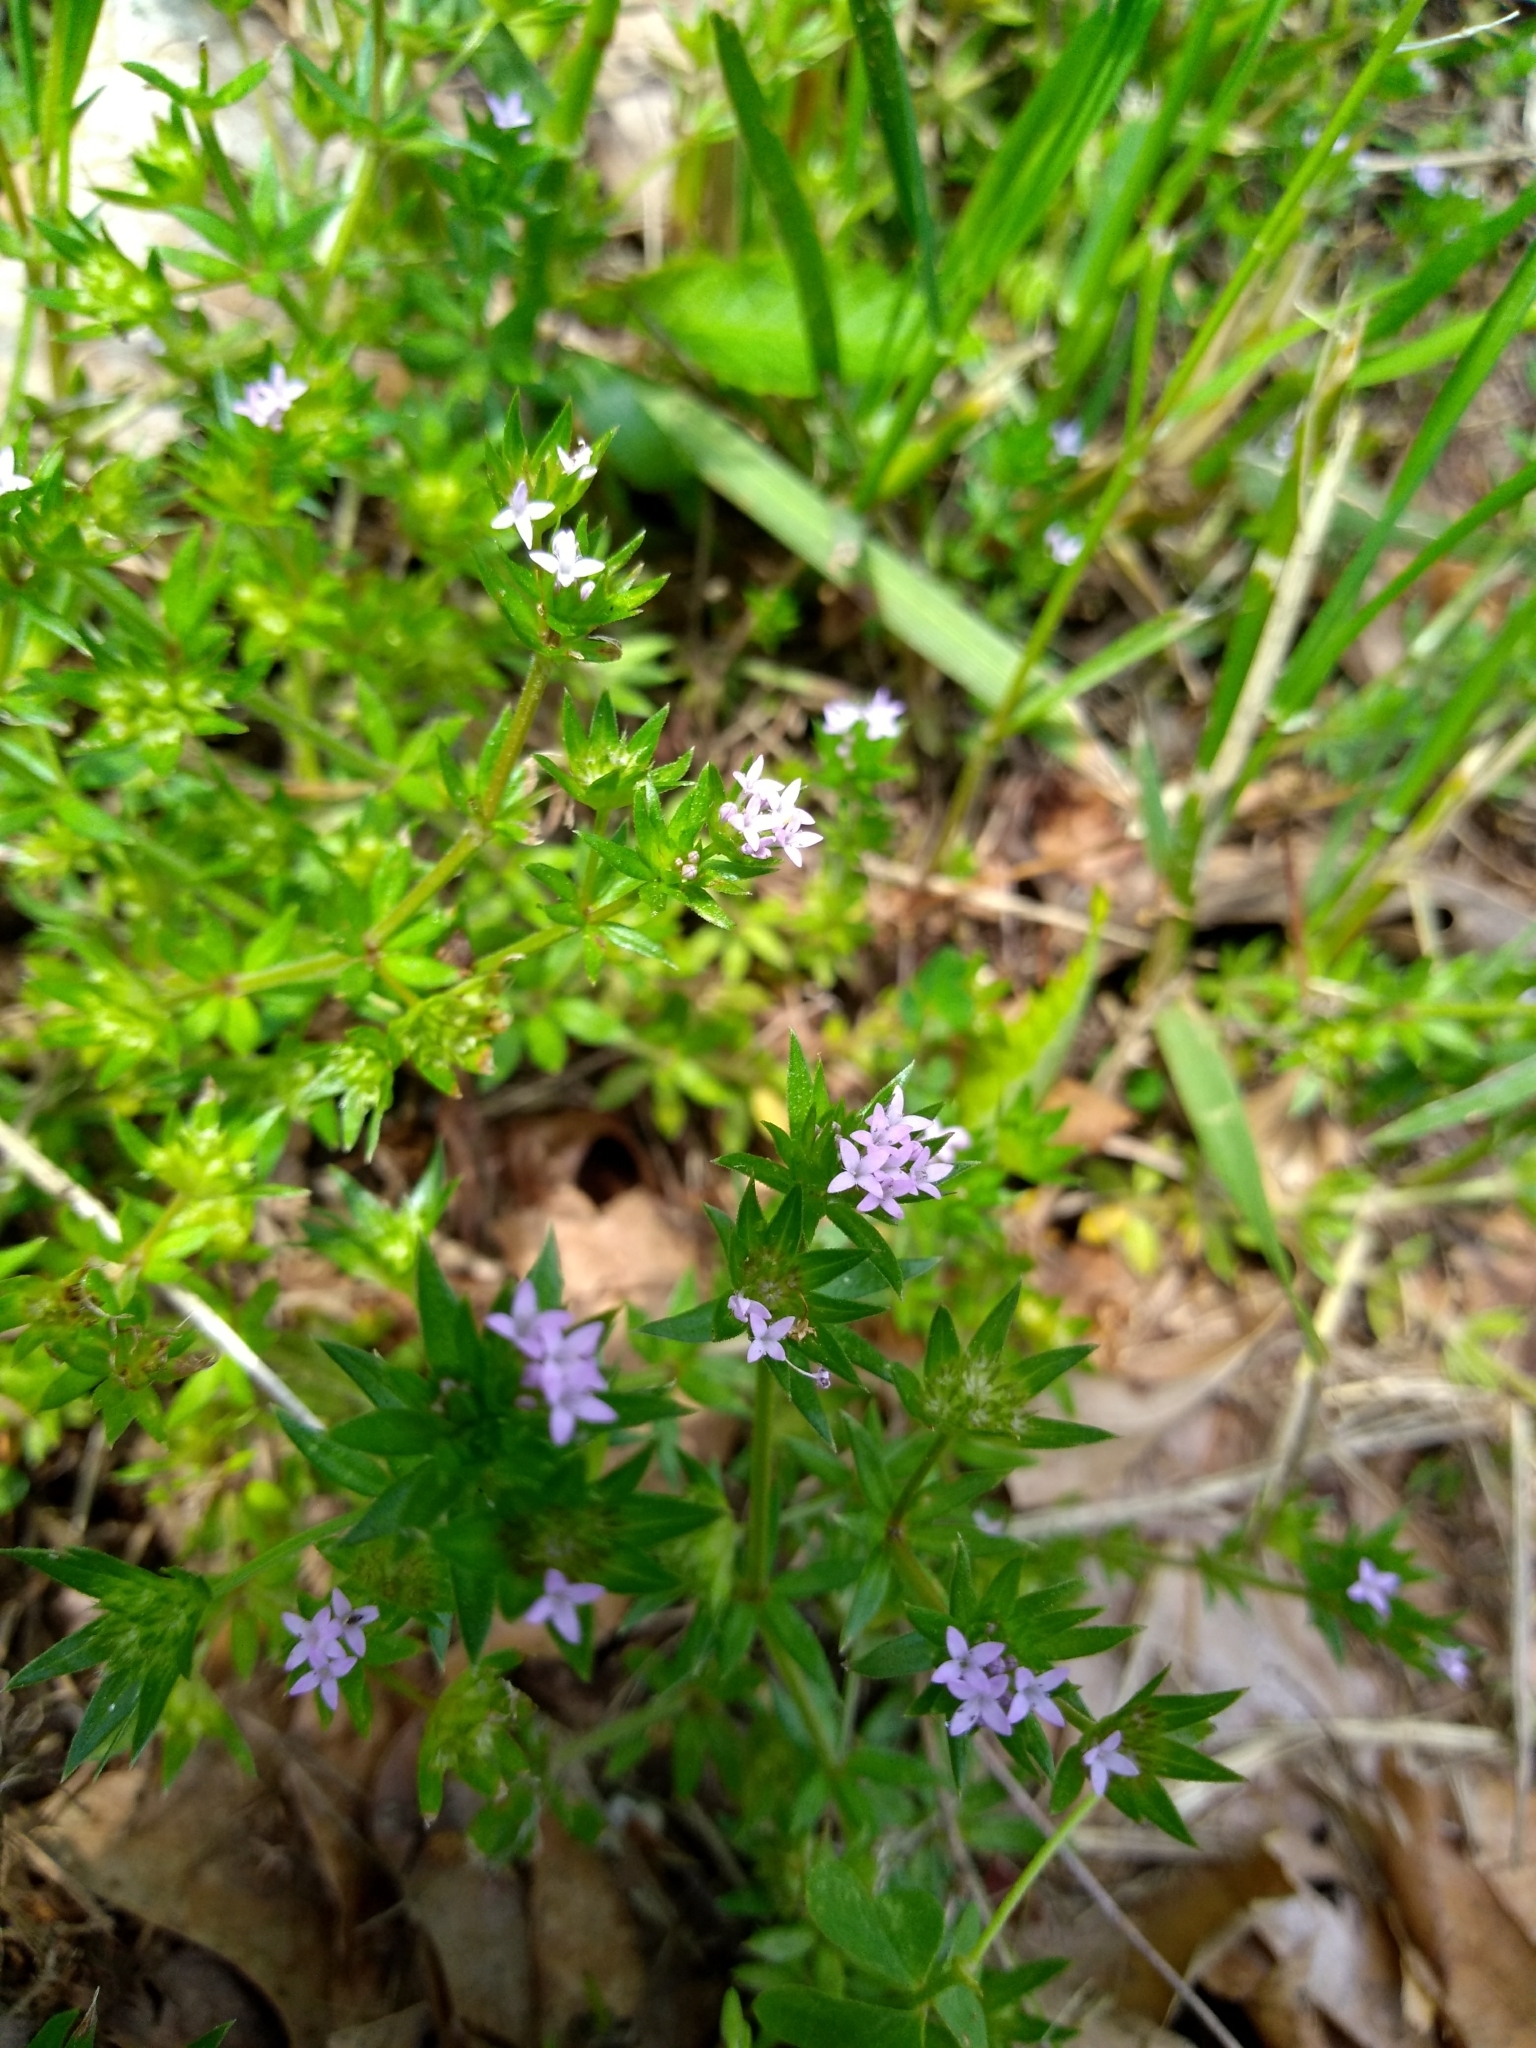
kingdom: Plantae
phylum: Tracheophyta
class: Magnoliopsida
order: Gentianales
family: Rubiaceae
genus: Sherardia
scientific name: Sherardia arvensis
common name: Field madder
